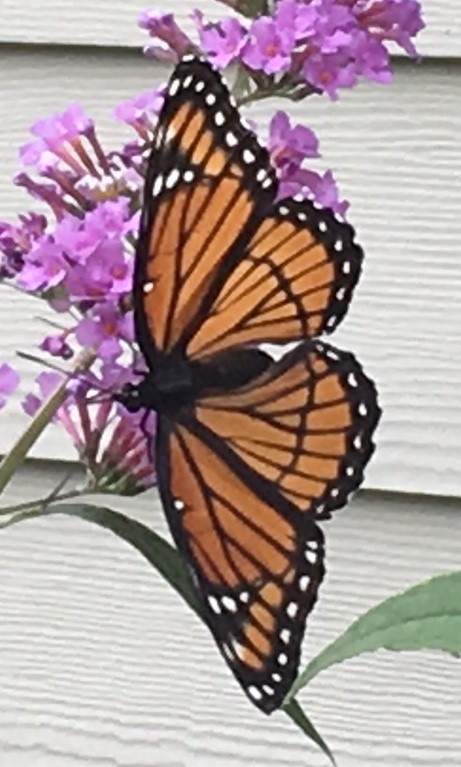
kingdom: Animalia
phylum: Arthropoda
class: Insecta
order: Lepidoptera
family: Nymphalidae
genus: Limenitis
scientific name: Limenitis archippus
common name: Viceroy
